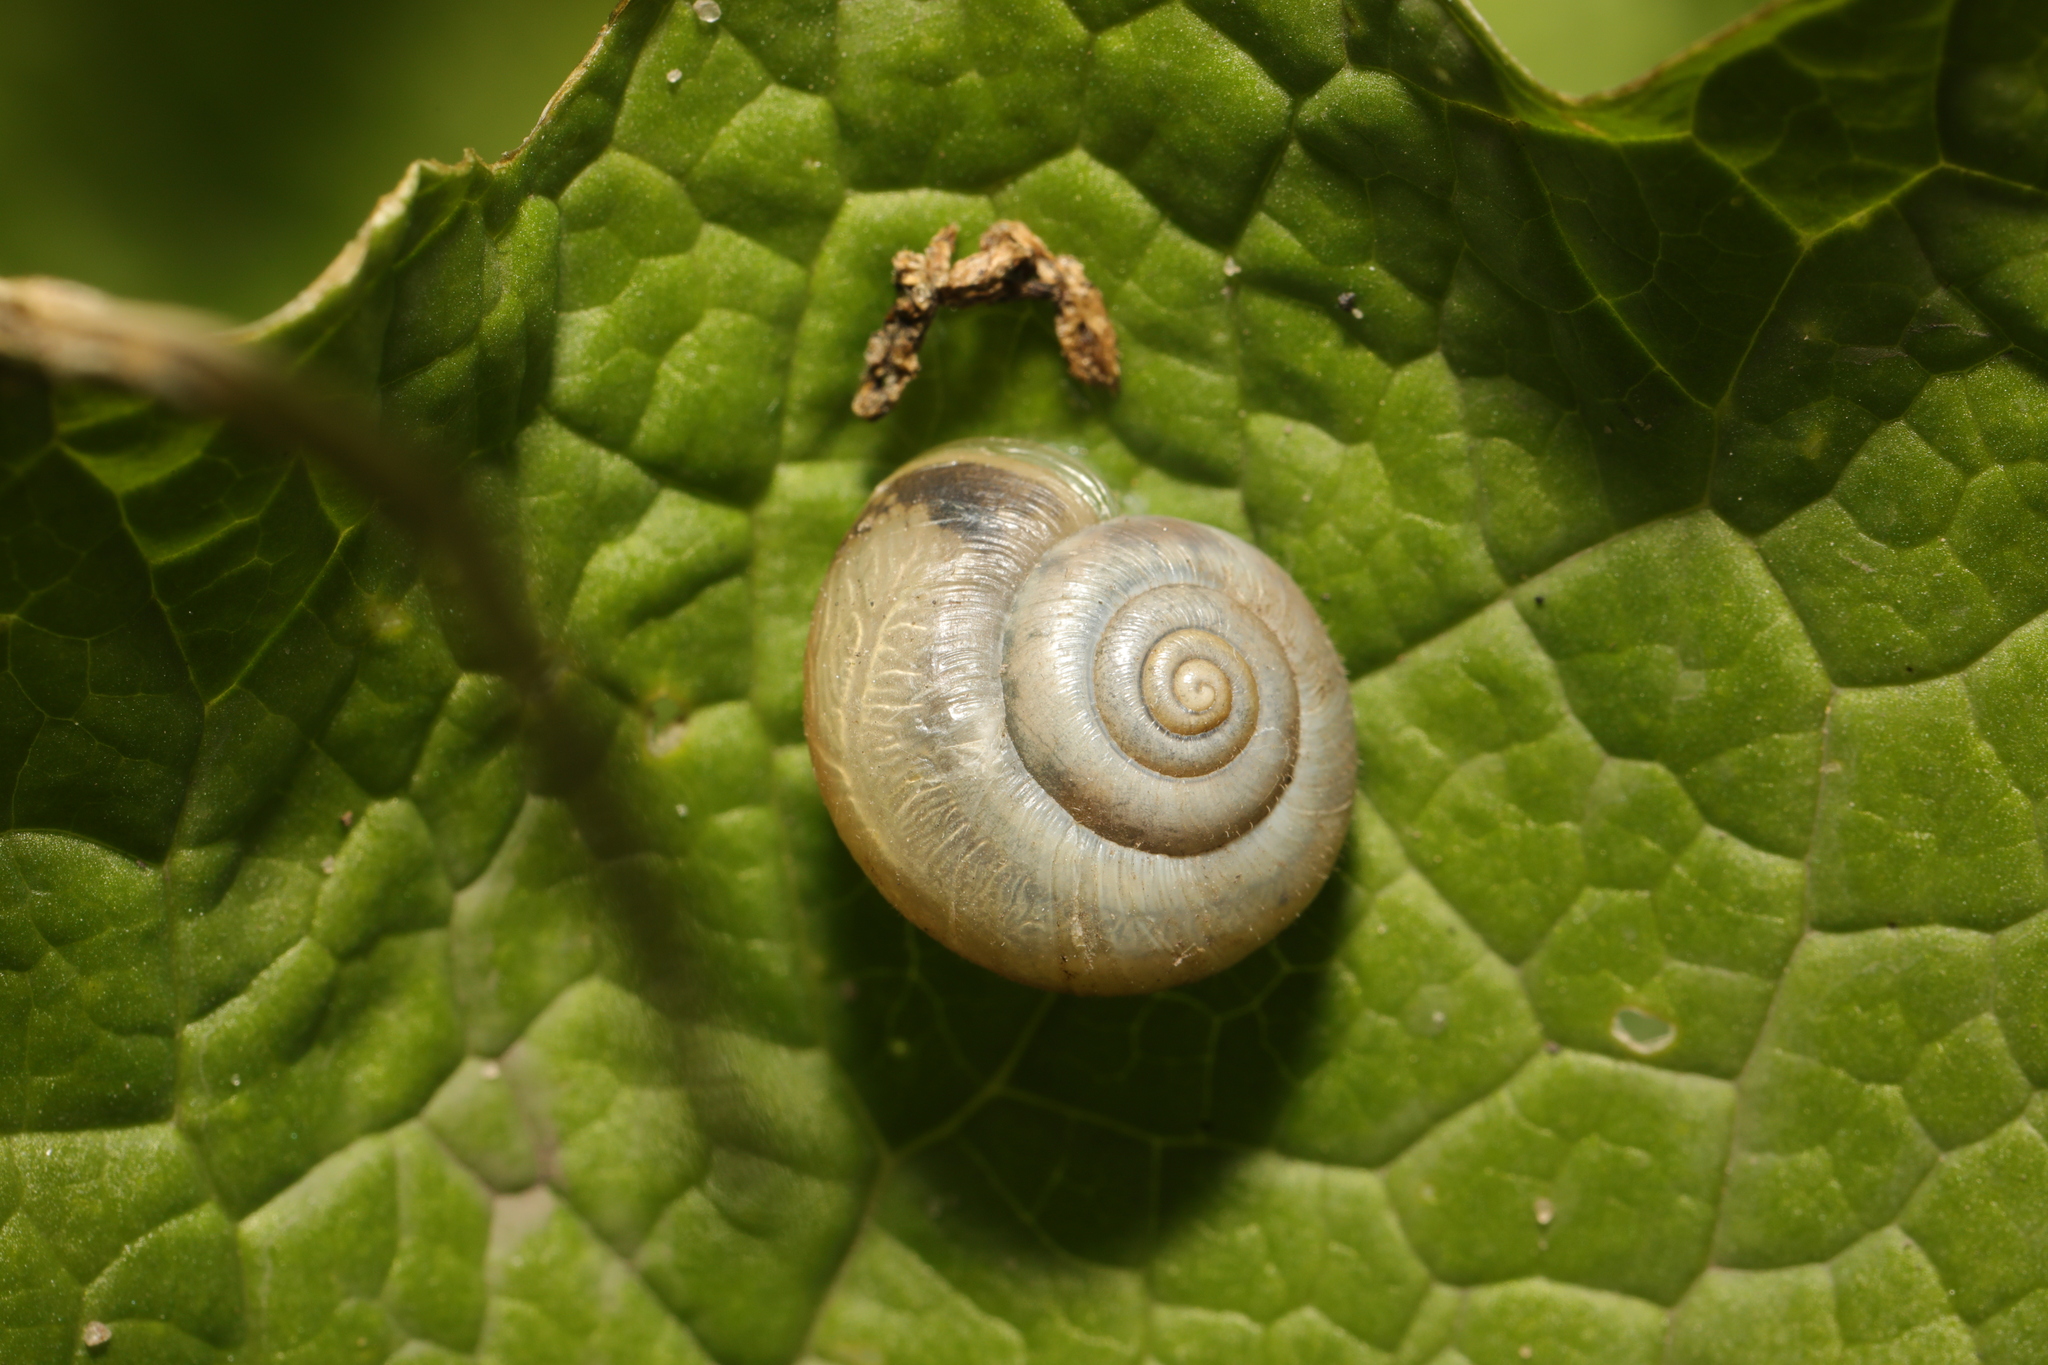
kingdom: Animalia
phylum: Mollusca
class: Gastropoda
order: Stylommatophora
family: Hygromiidae
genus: Monacha
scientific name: Monacha cantiana
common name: Kentish snail
